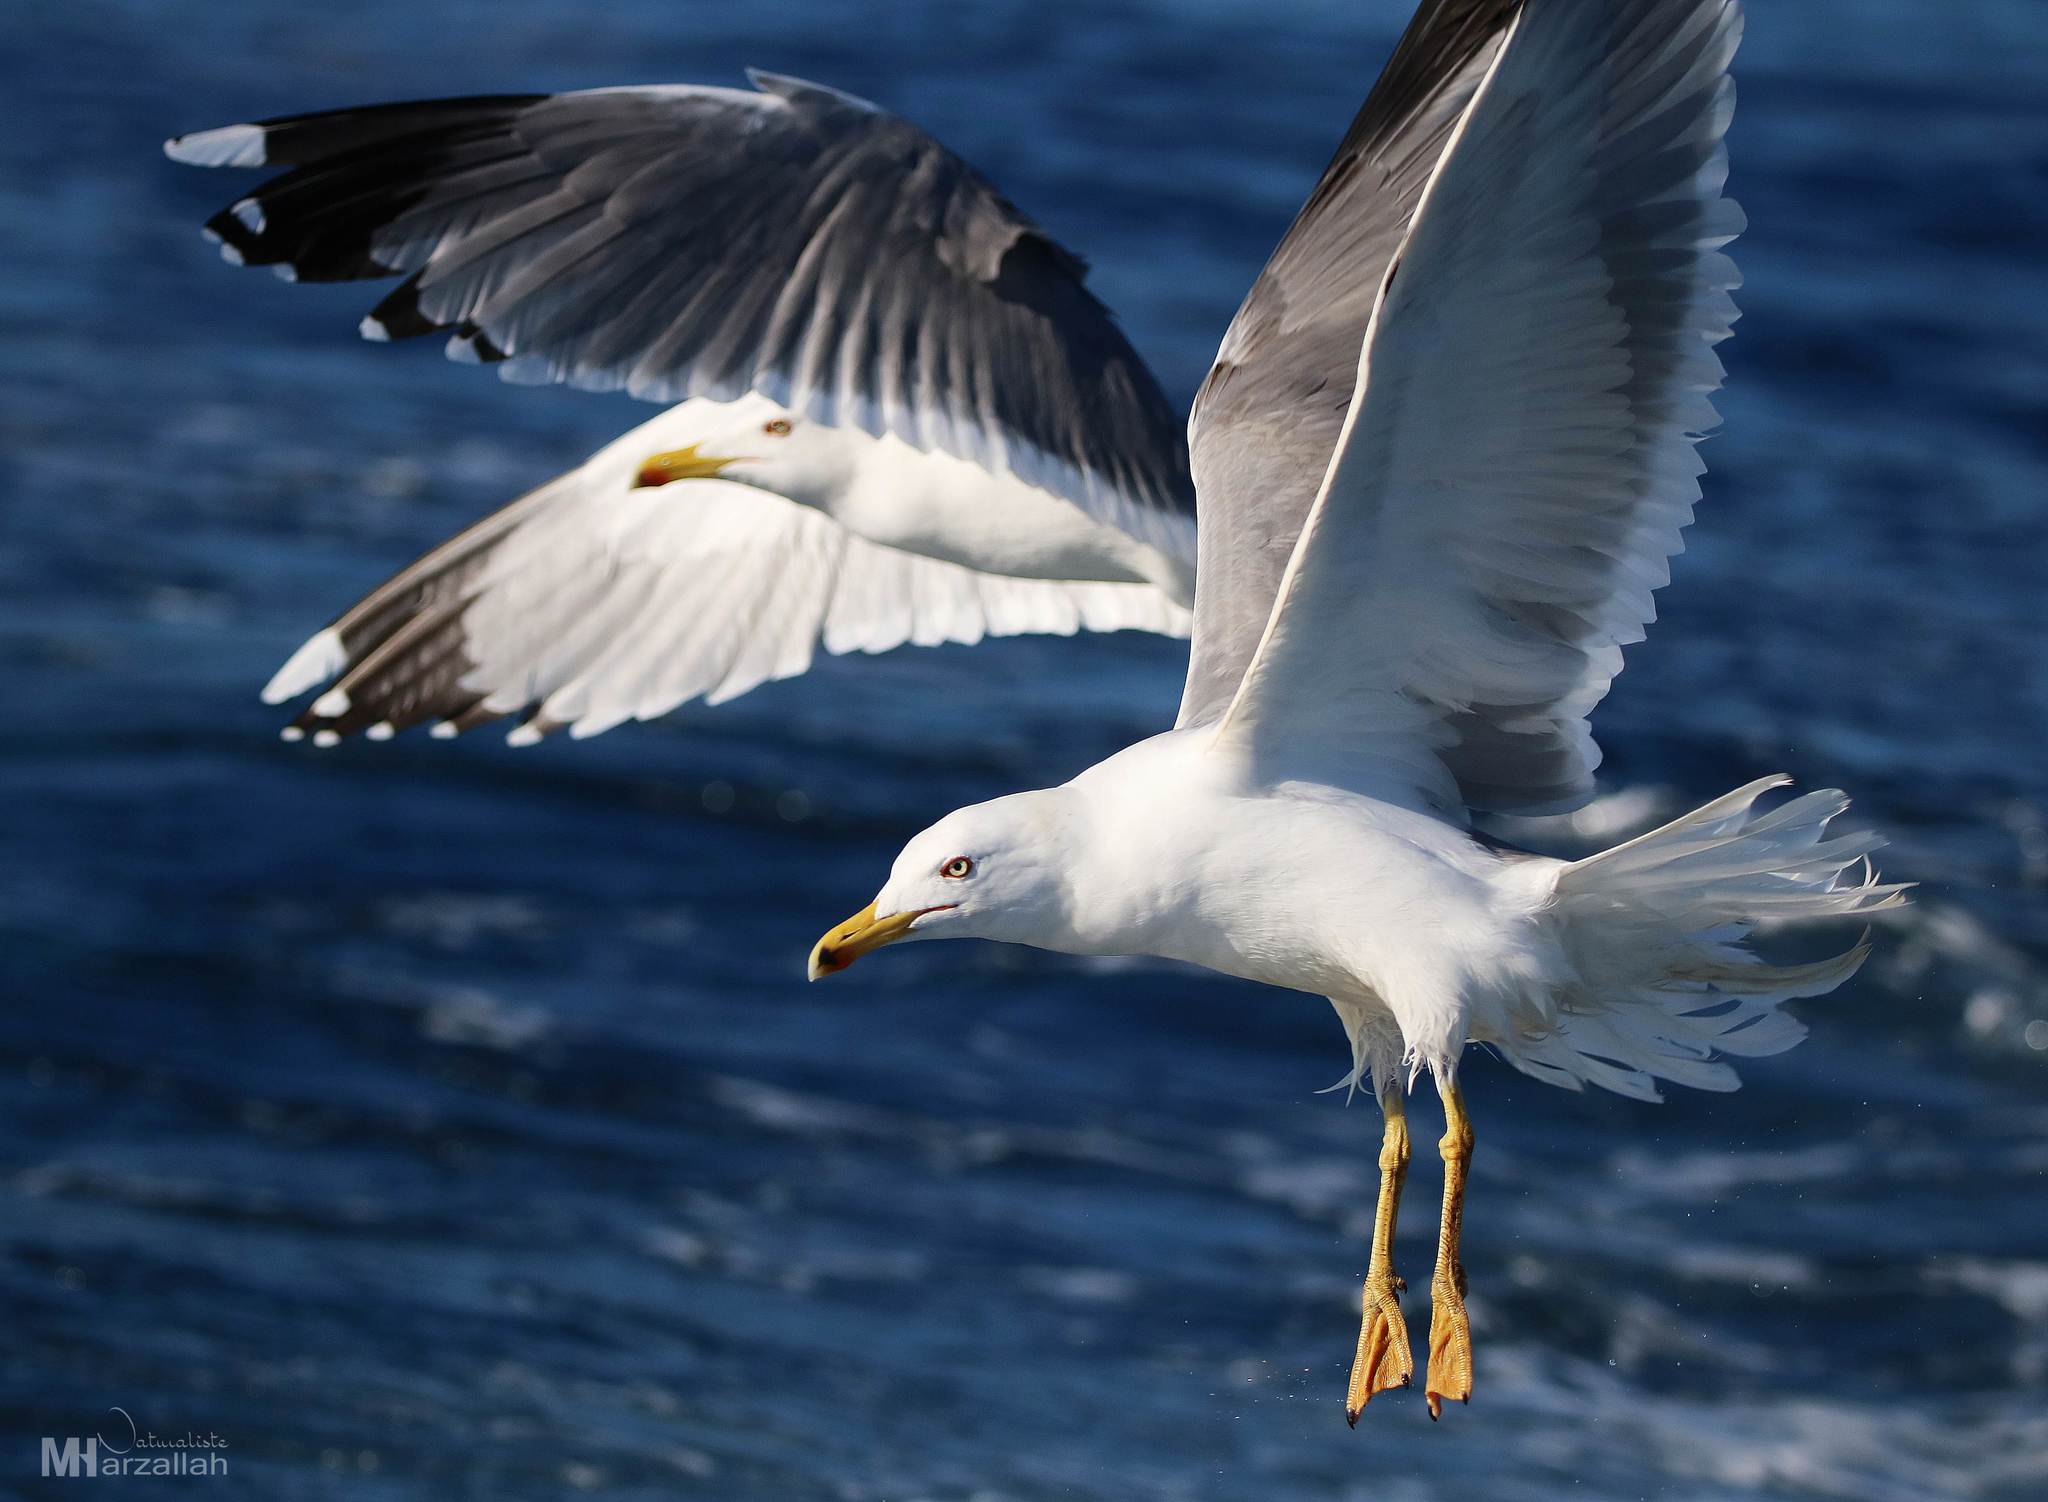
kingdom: Animalia
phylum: Chordata
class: Aves
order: Charadriiformes
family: Laridae
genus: Larus
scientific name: Larus michahellis
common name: Yellow-legged gull
